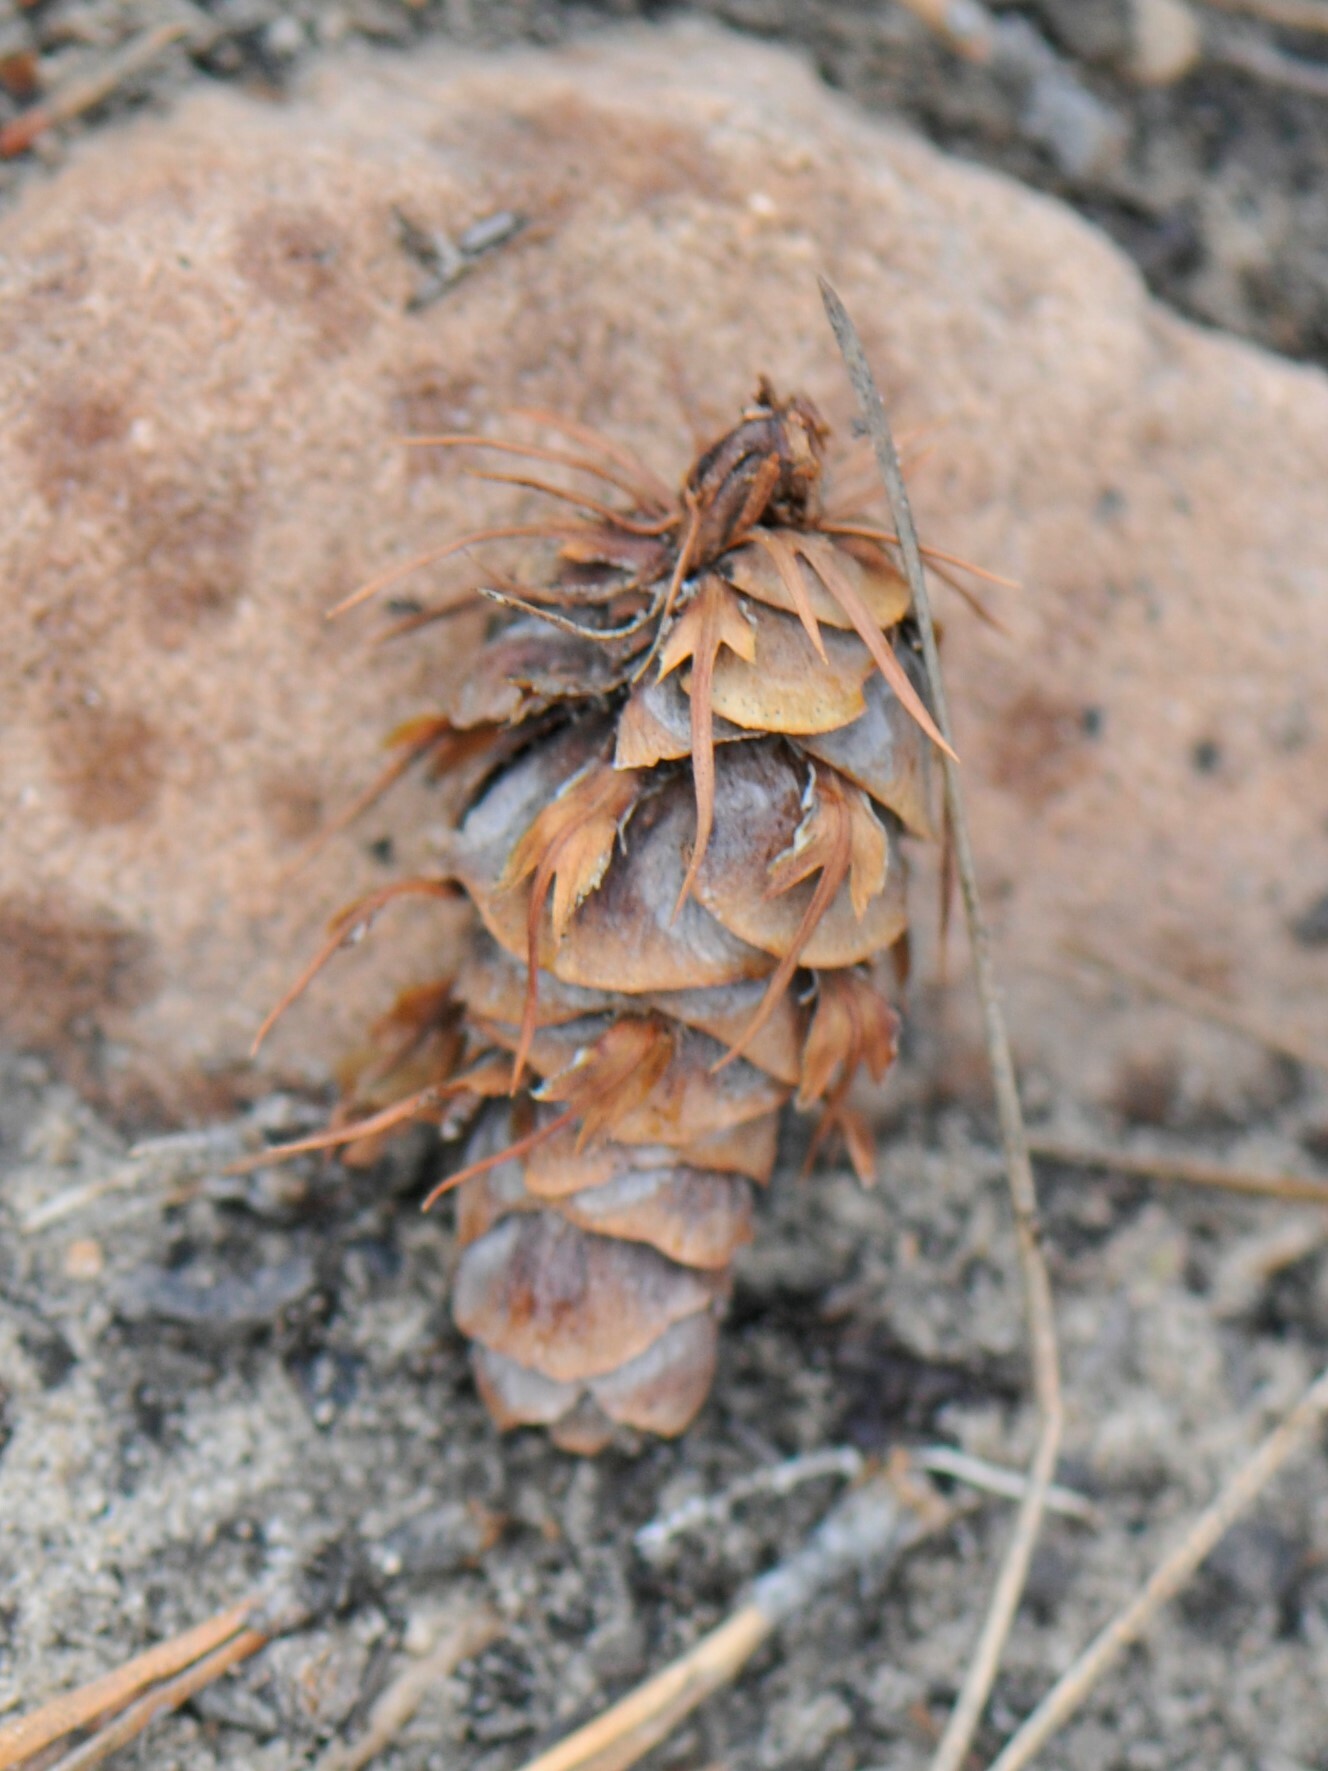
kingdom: Plantae
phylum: Tracheophyta
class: Pinopsida
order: Pinales
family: Pinaceae
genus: Pseudotsuga
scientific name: Pseudotsuga menziesii
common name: Douglas fir
